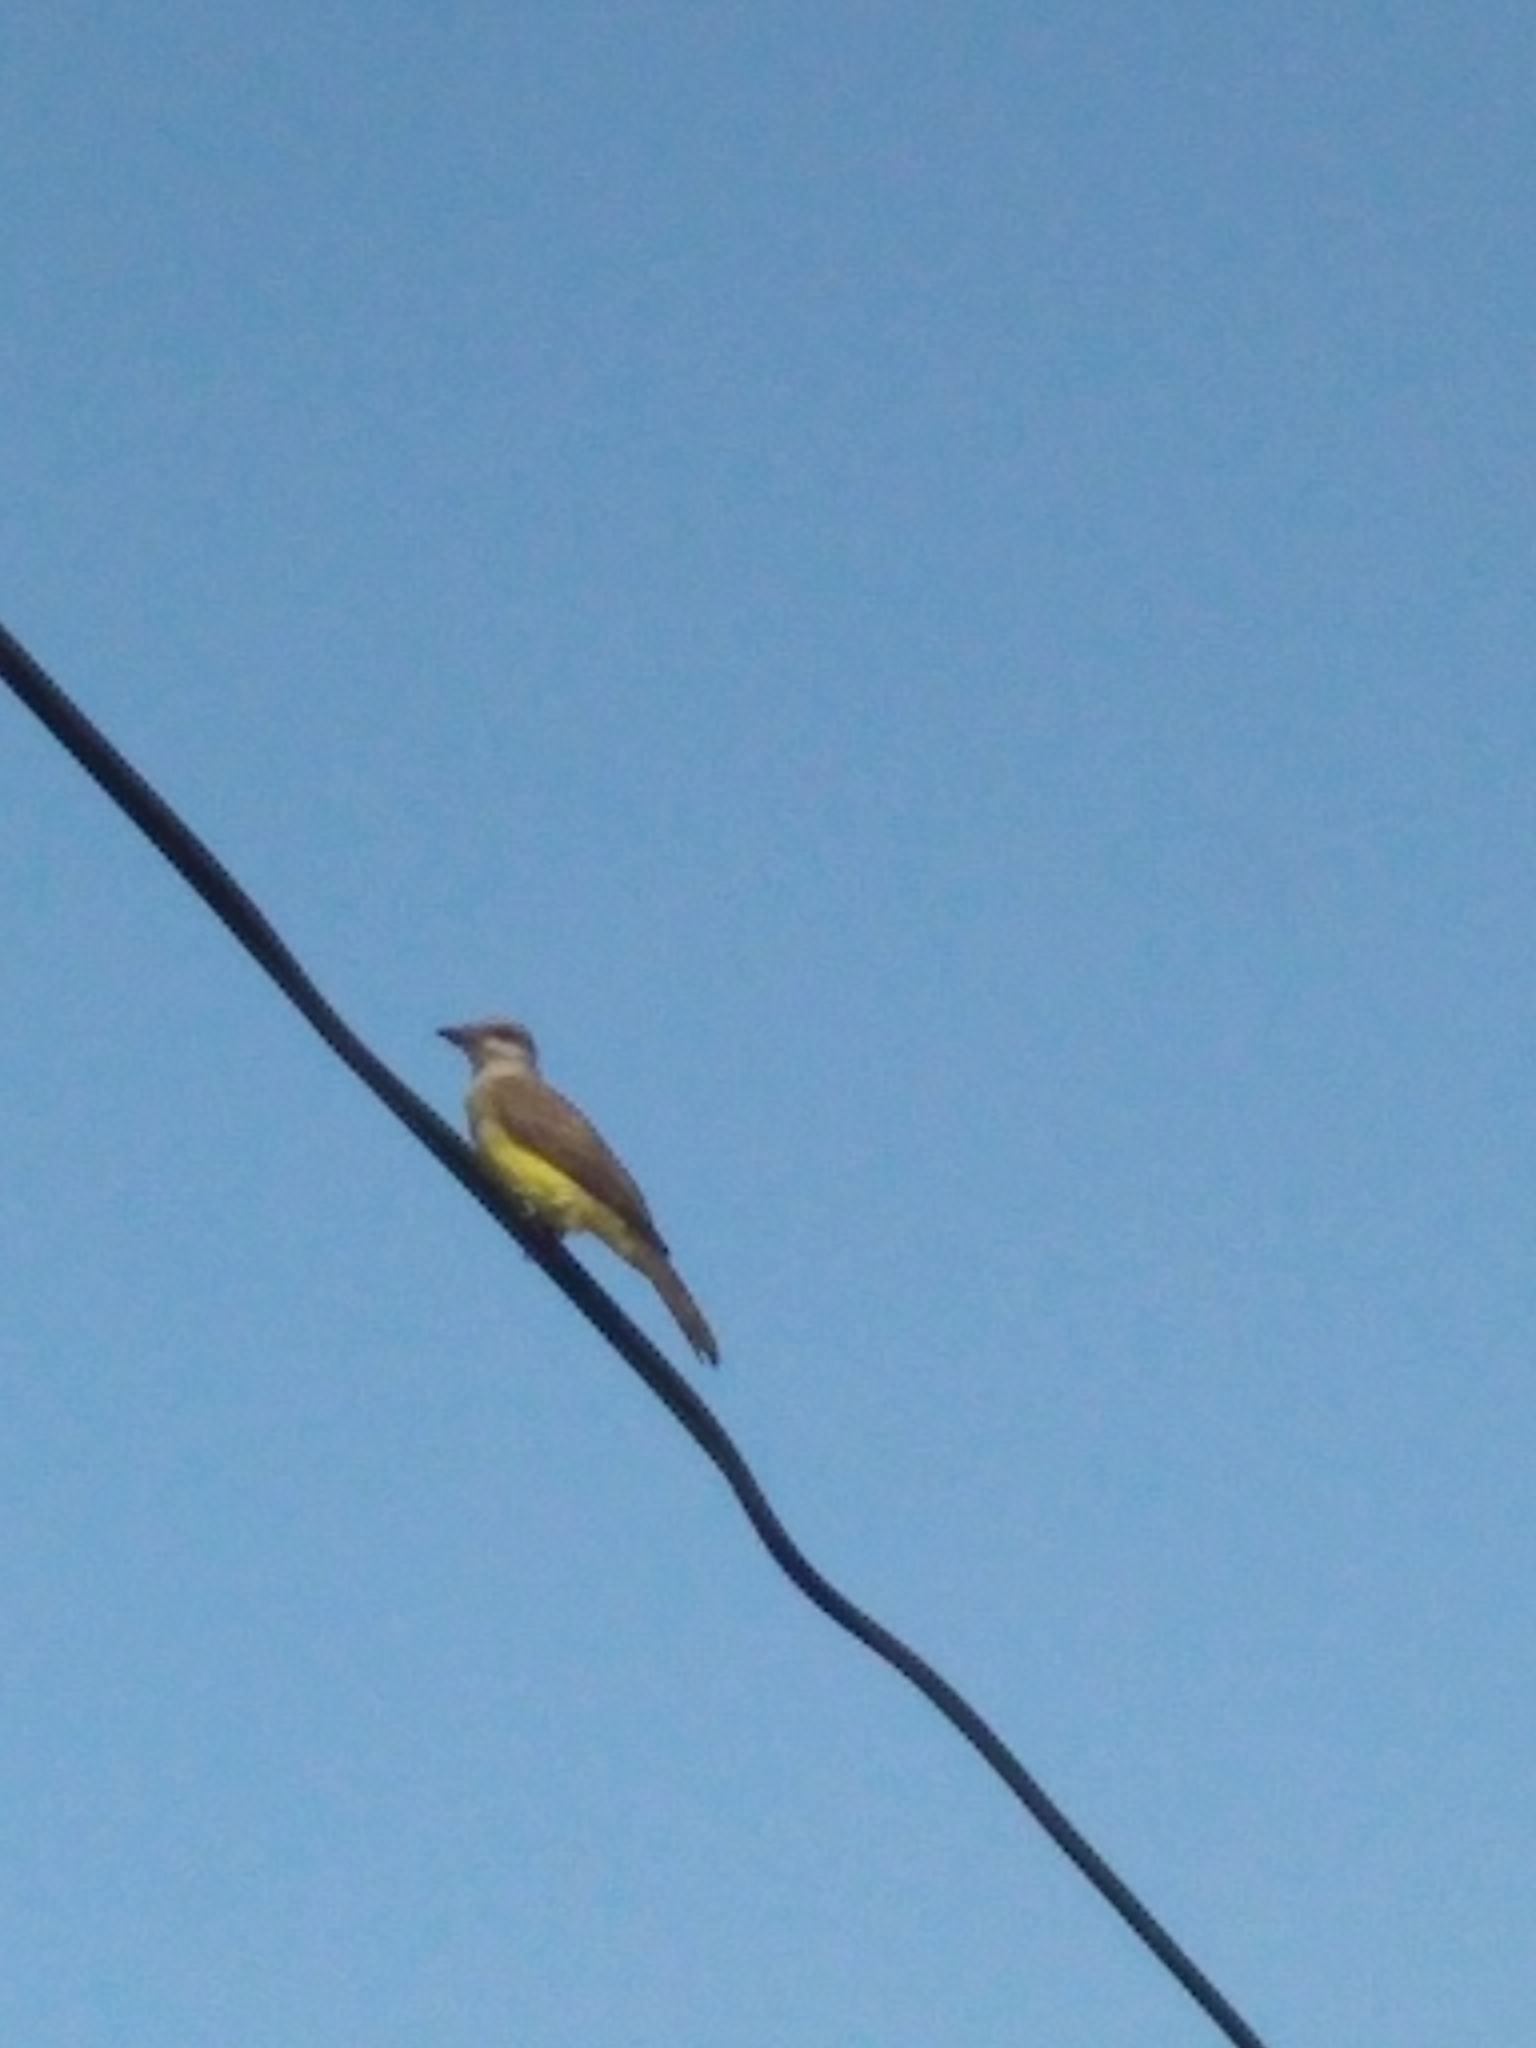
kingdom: Animalia
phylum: Chordata
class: Aves
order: Passeriformes
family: Tyrannidae
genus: Tyrannus
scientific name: Tyrannus melancholicus
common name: Tropical kingbird
